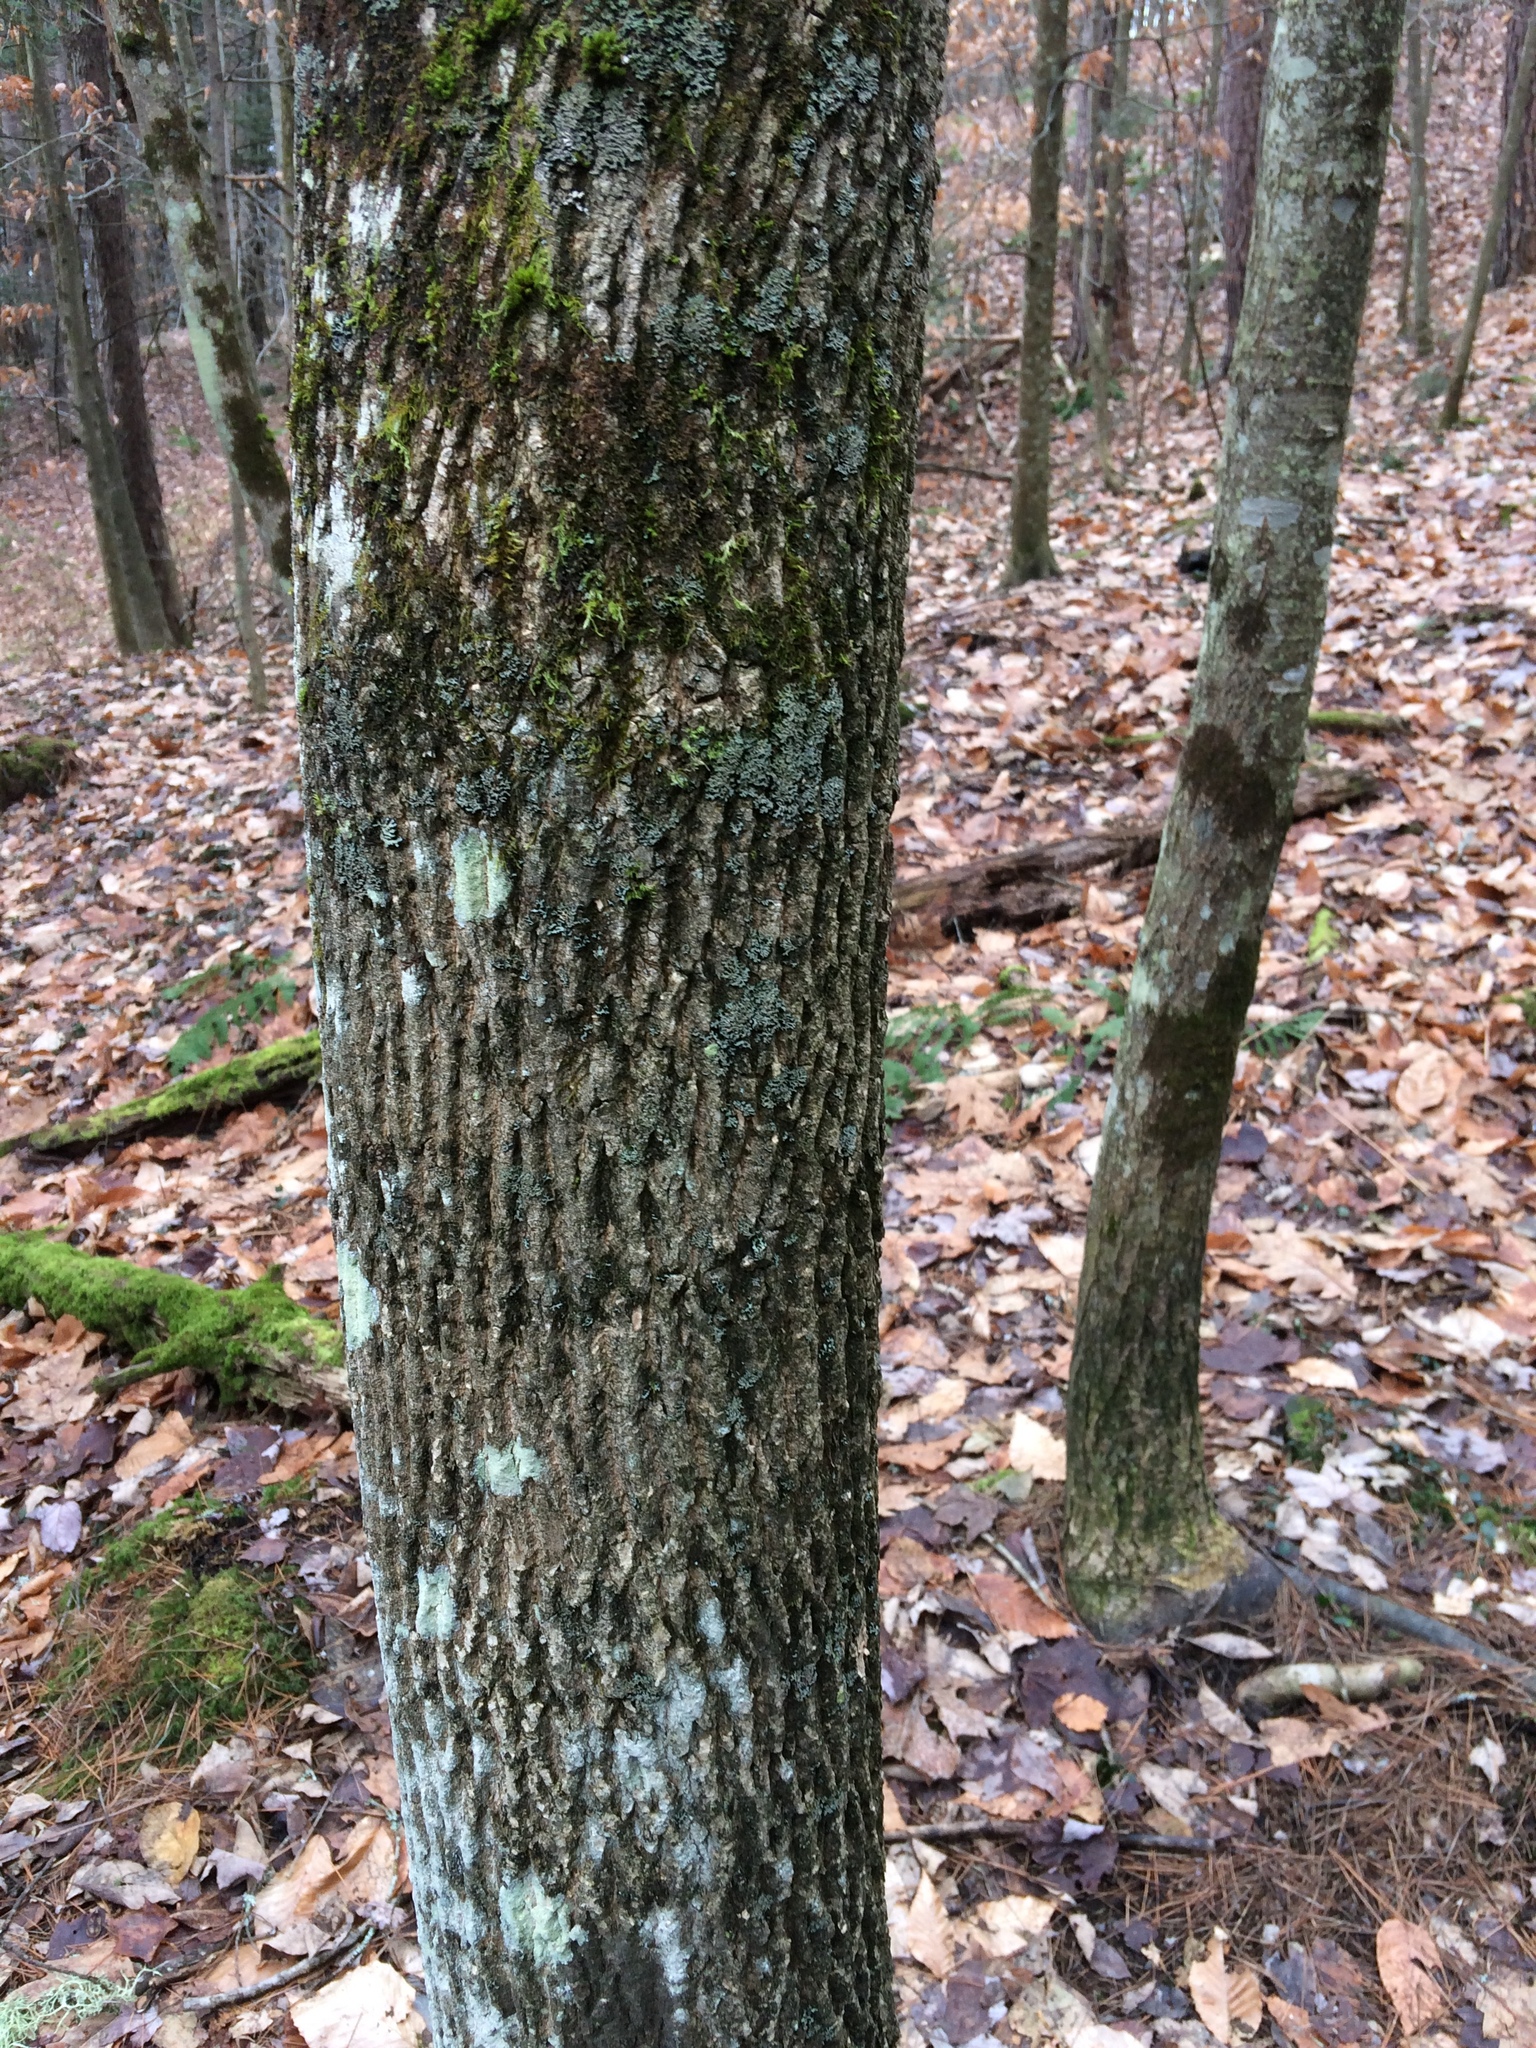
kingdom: Plantae
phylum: Tracheophyta
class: Magnoliopsida
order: Lamiales
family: Oleaceae
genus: Fraxinus
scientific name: Fraxinus americana
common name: White ash
